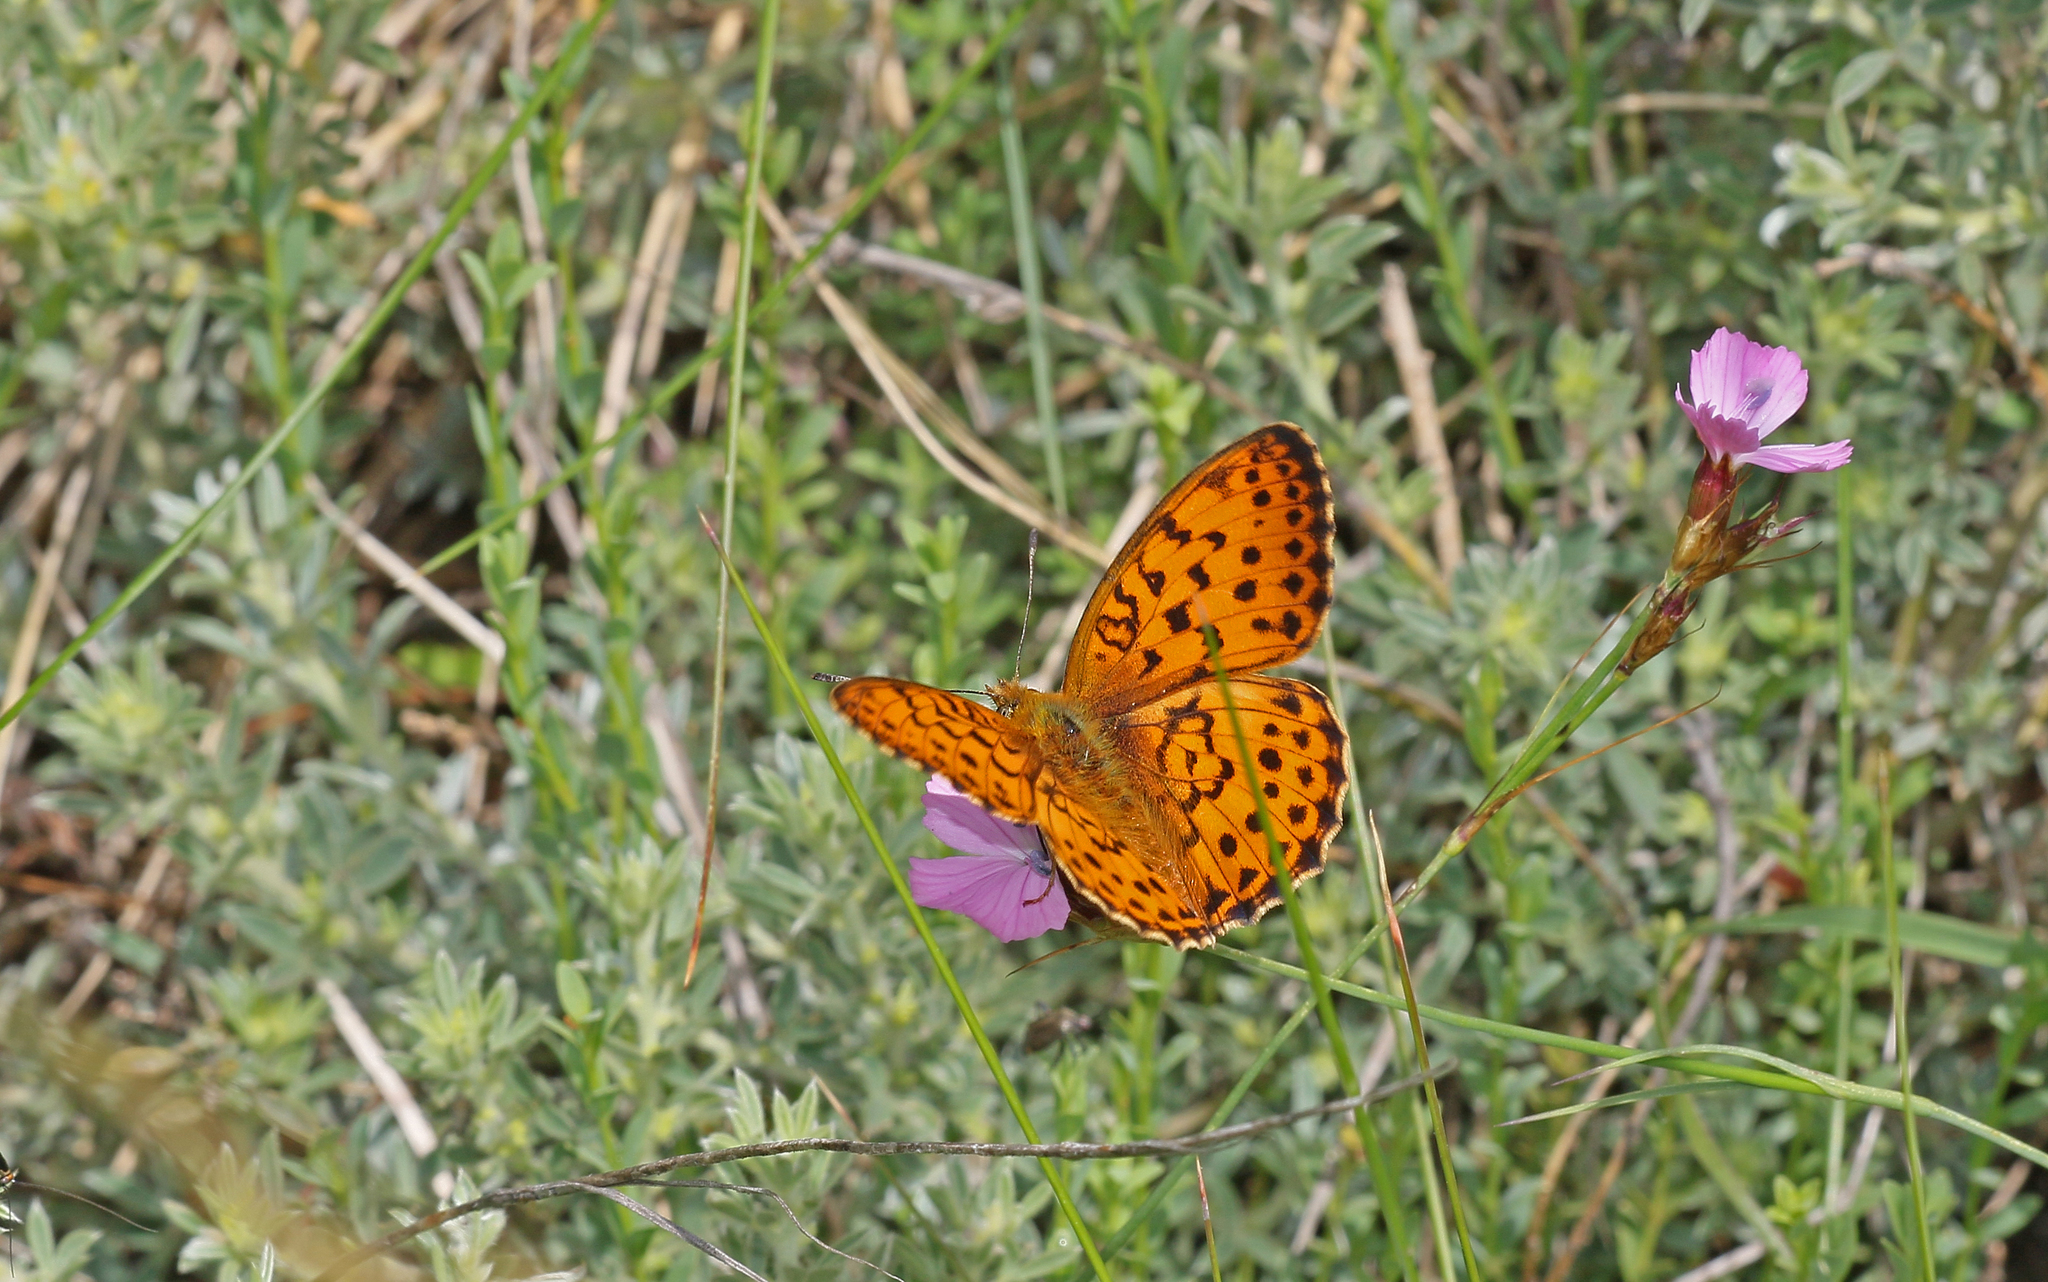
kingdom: Animalia
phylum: Arthropoda
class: Insecta
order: Lepidoptera
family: Nymphalidae
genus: Brenthis
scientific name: Brenthis daphne
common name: Marbled fritillary
